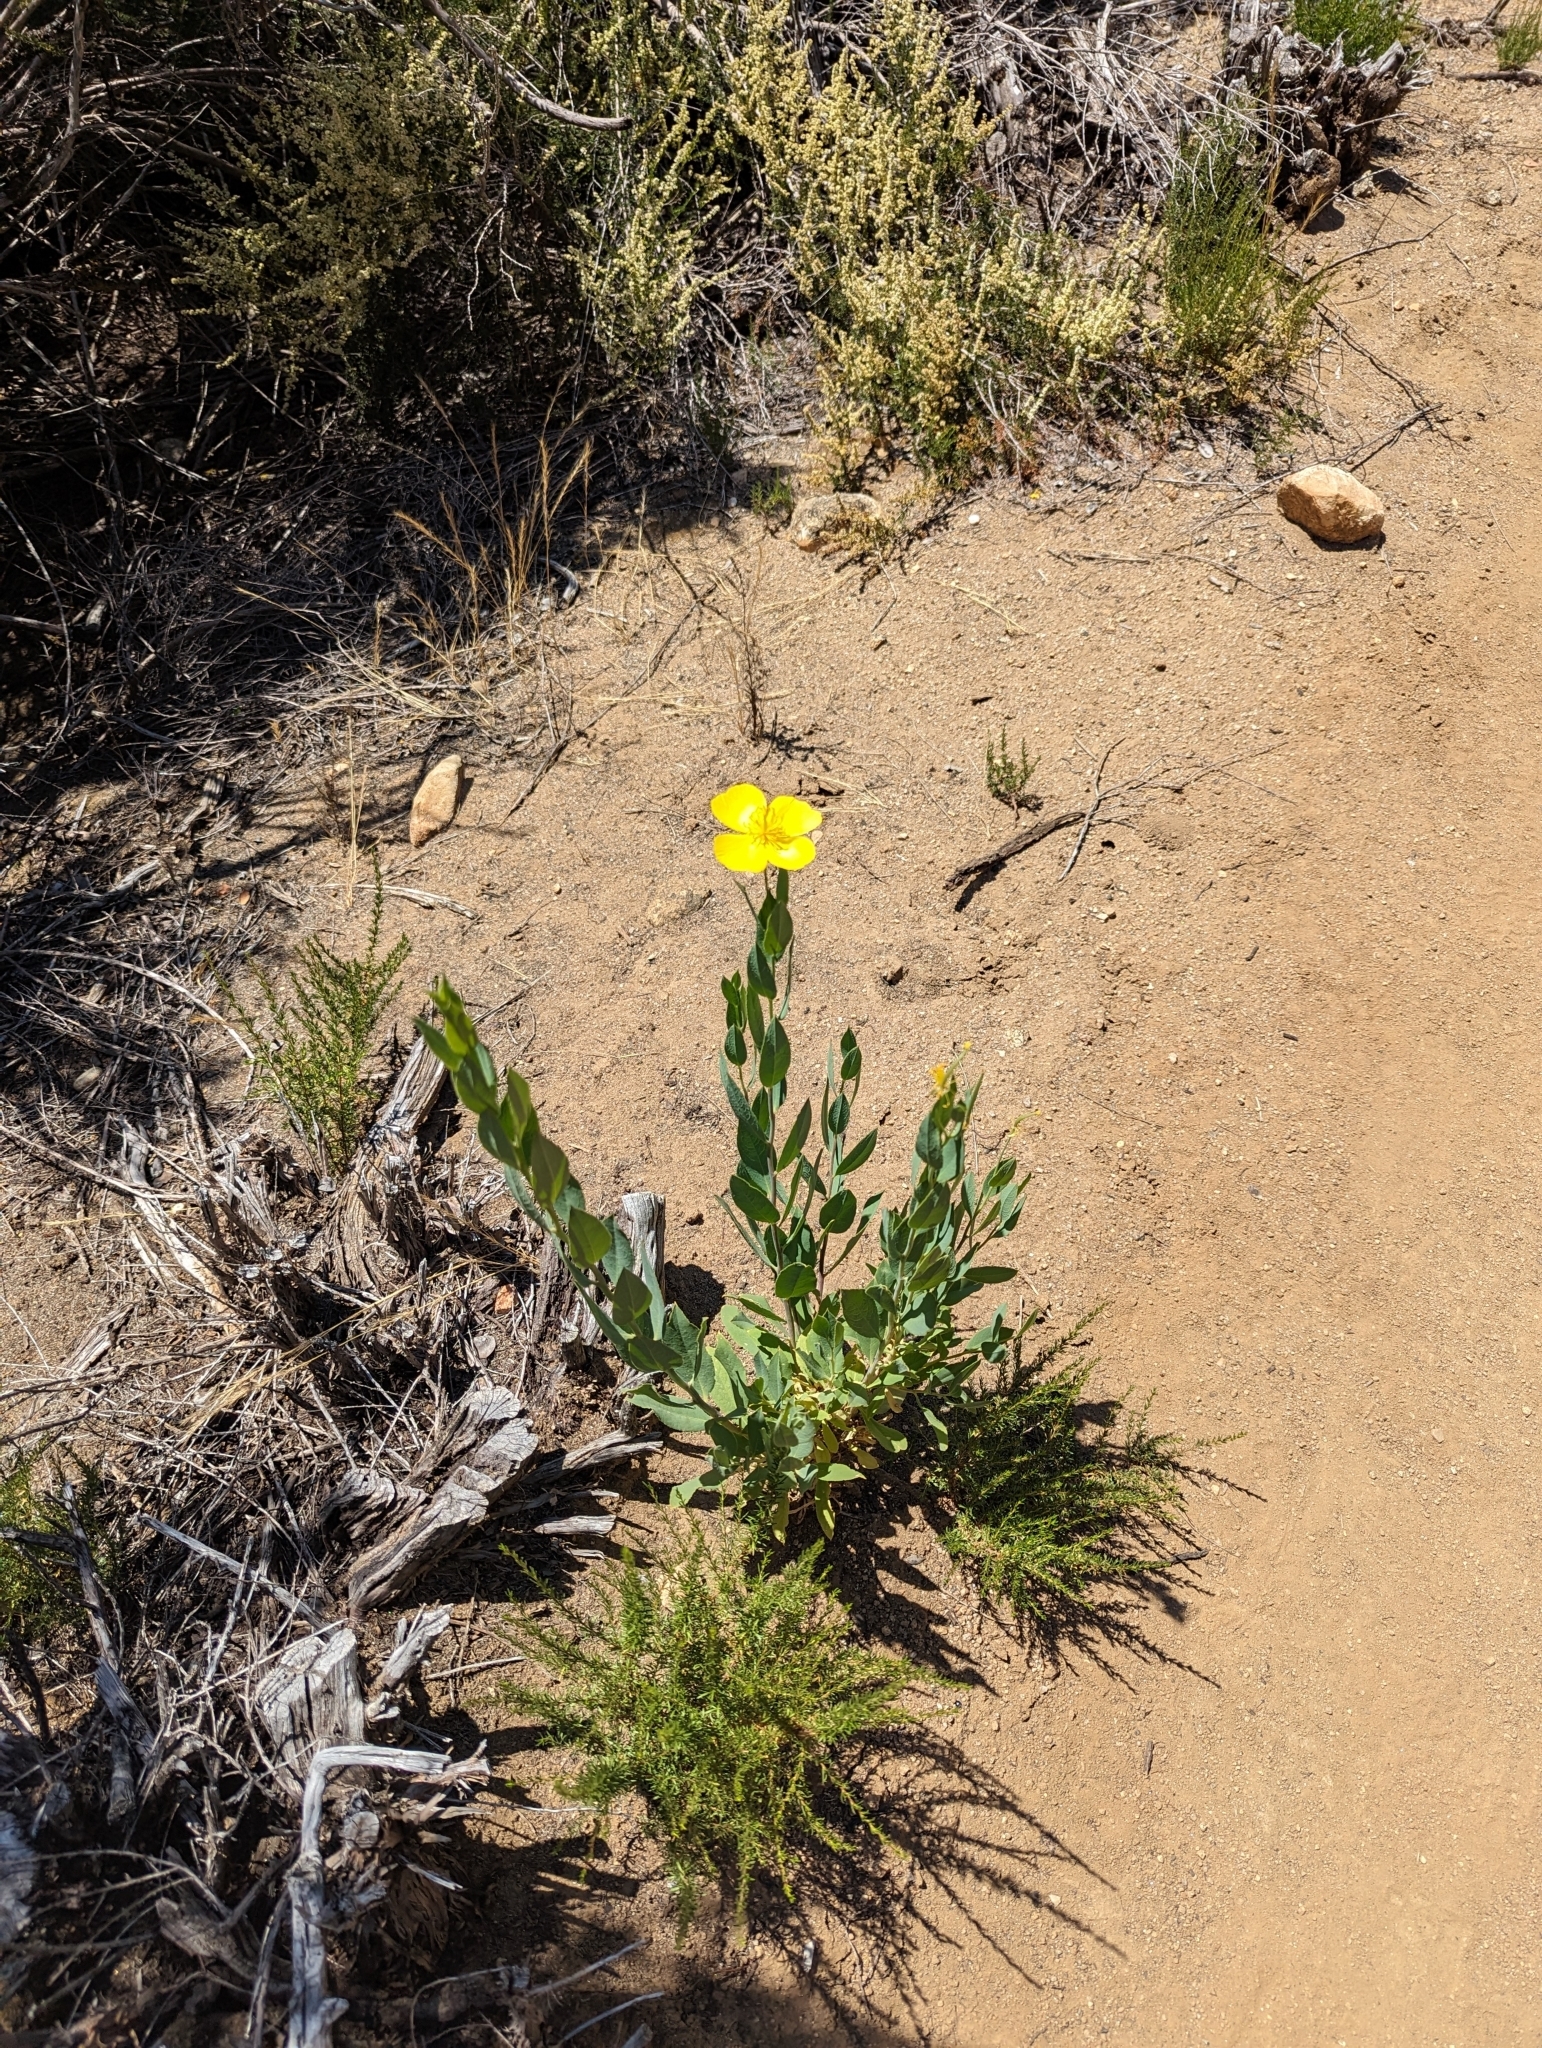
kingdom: Plantae
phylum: Tracheophyta
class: Magnoliopsida
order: Ranunculales
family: Papaveraceae
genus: Dendromecon
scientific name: Dendromecon rigida
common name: Tree poppy
